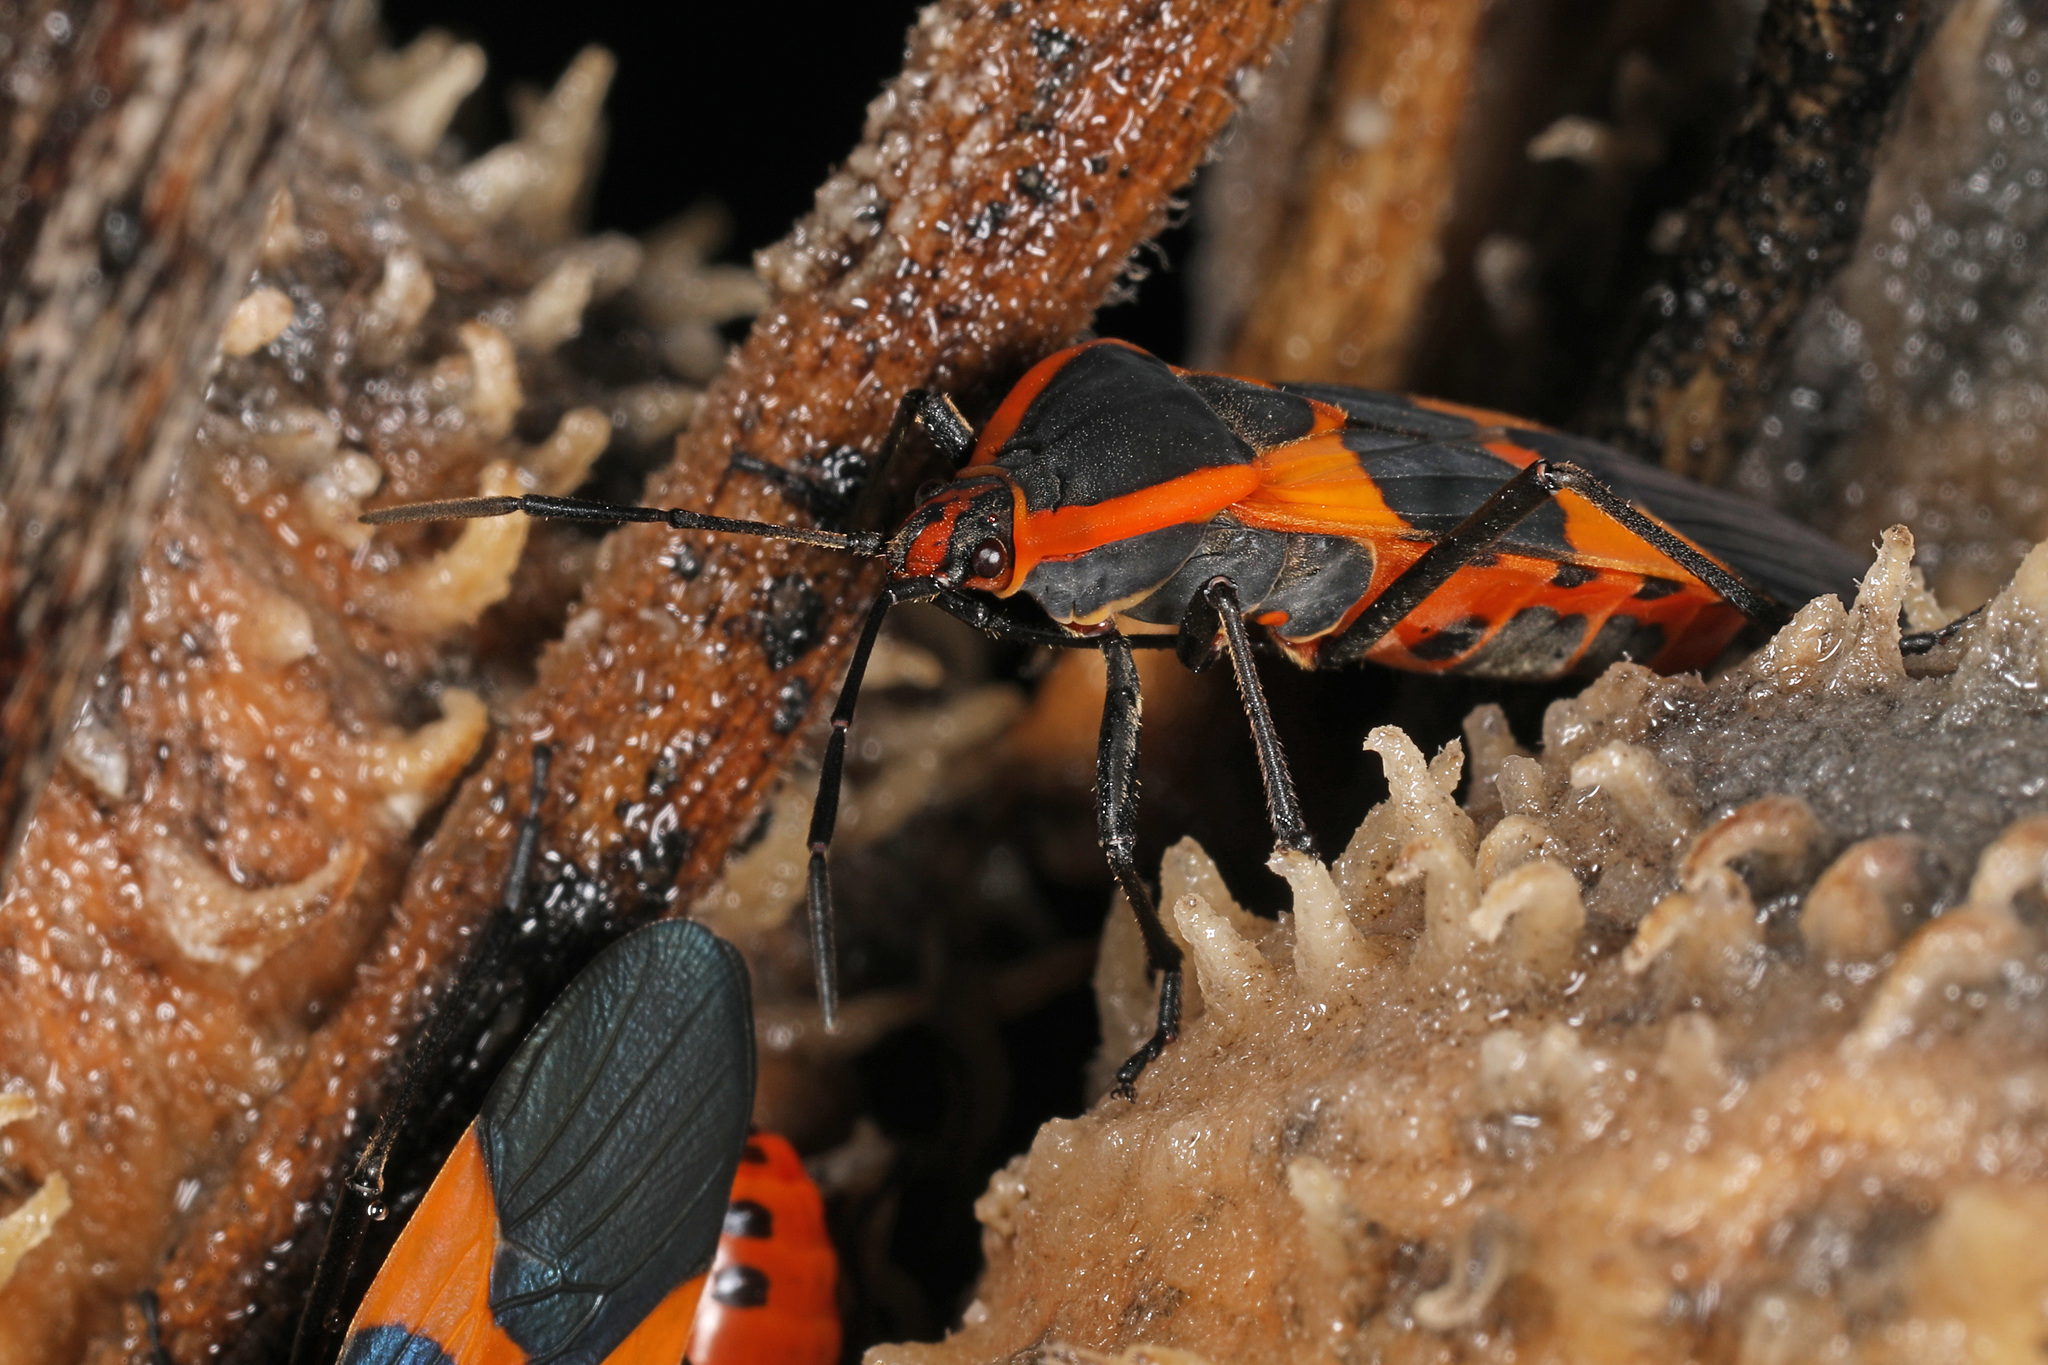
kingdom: Animalia
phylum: Arthropoda
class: Insecta
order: Hemiptera
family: Lygaeidae
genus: Oncopeltus
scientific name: Oncopeltus fasciatus
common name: Large milkweed bug
